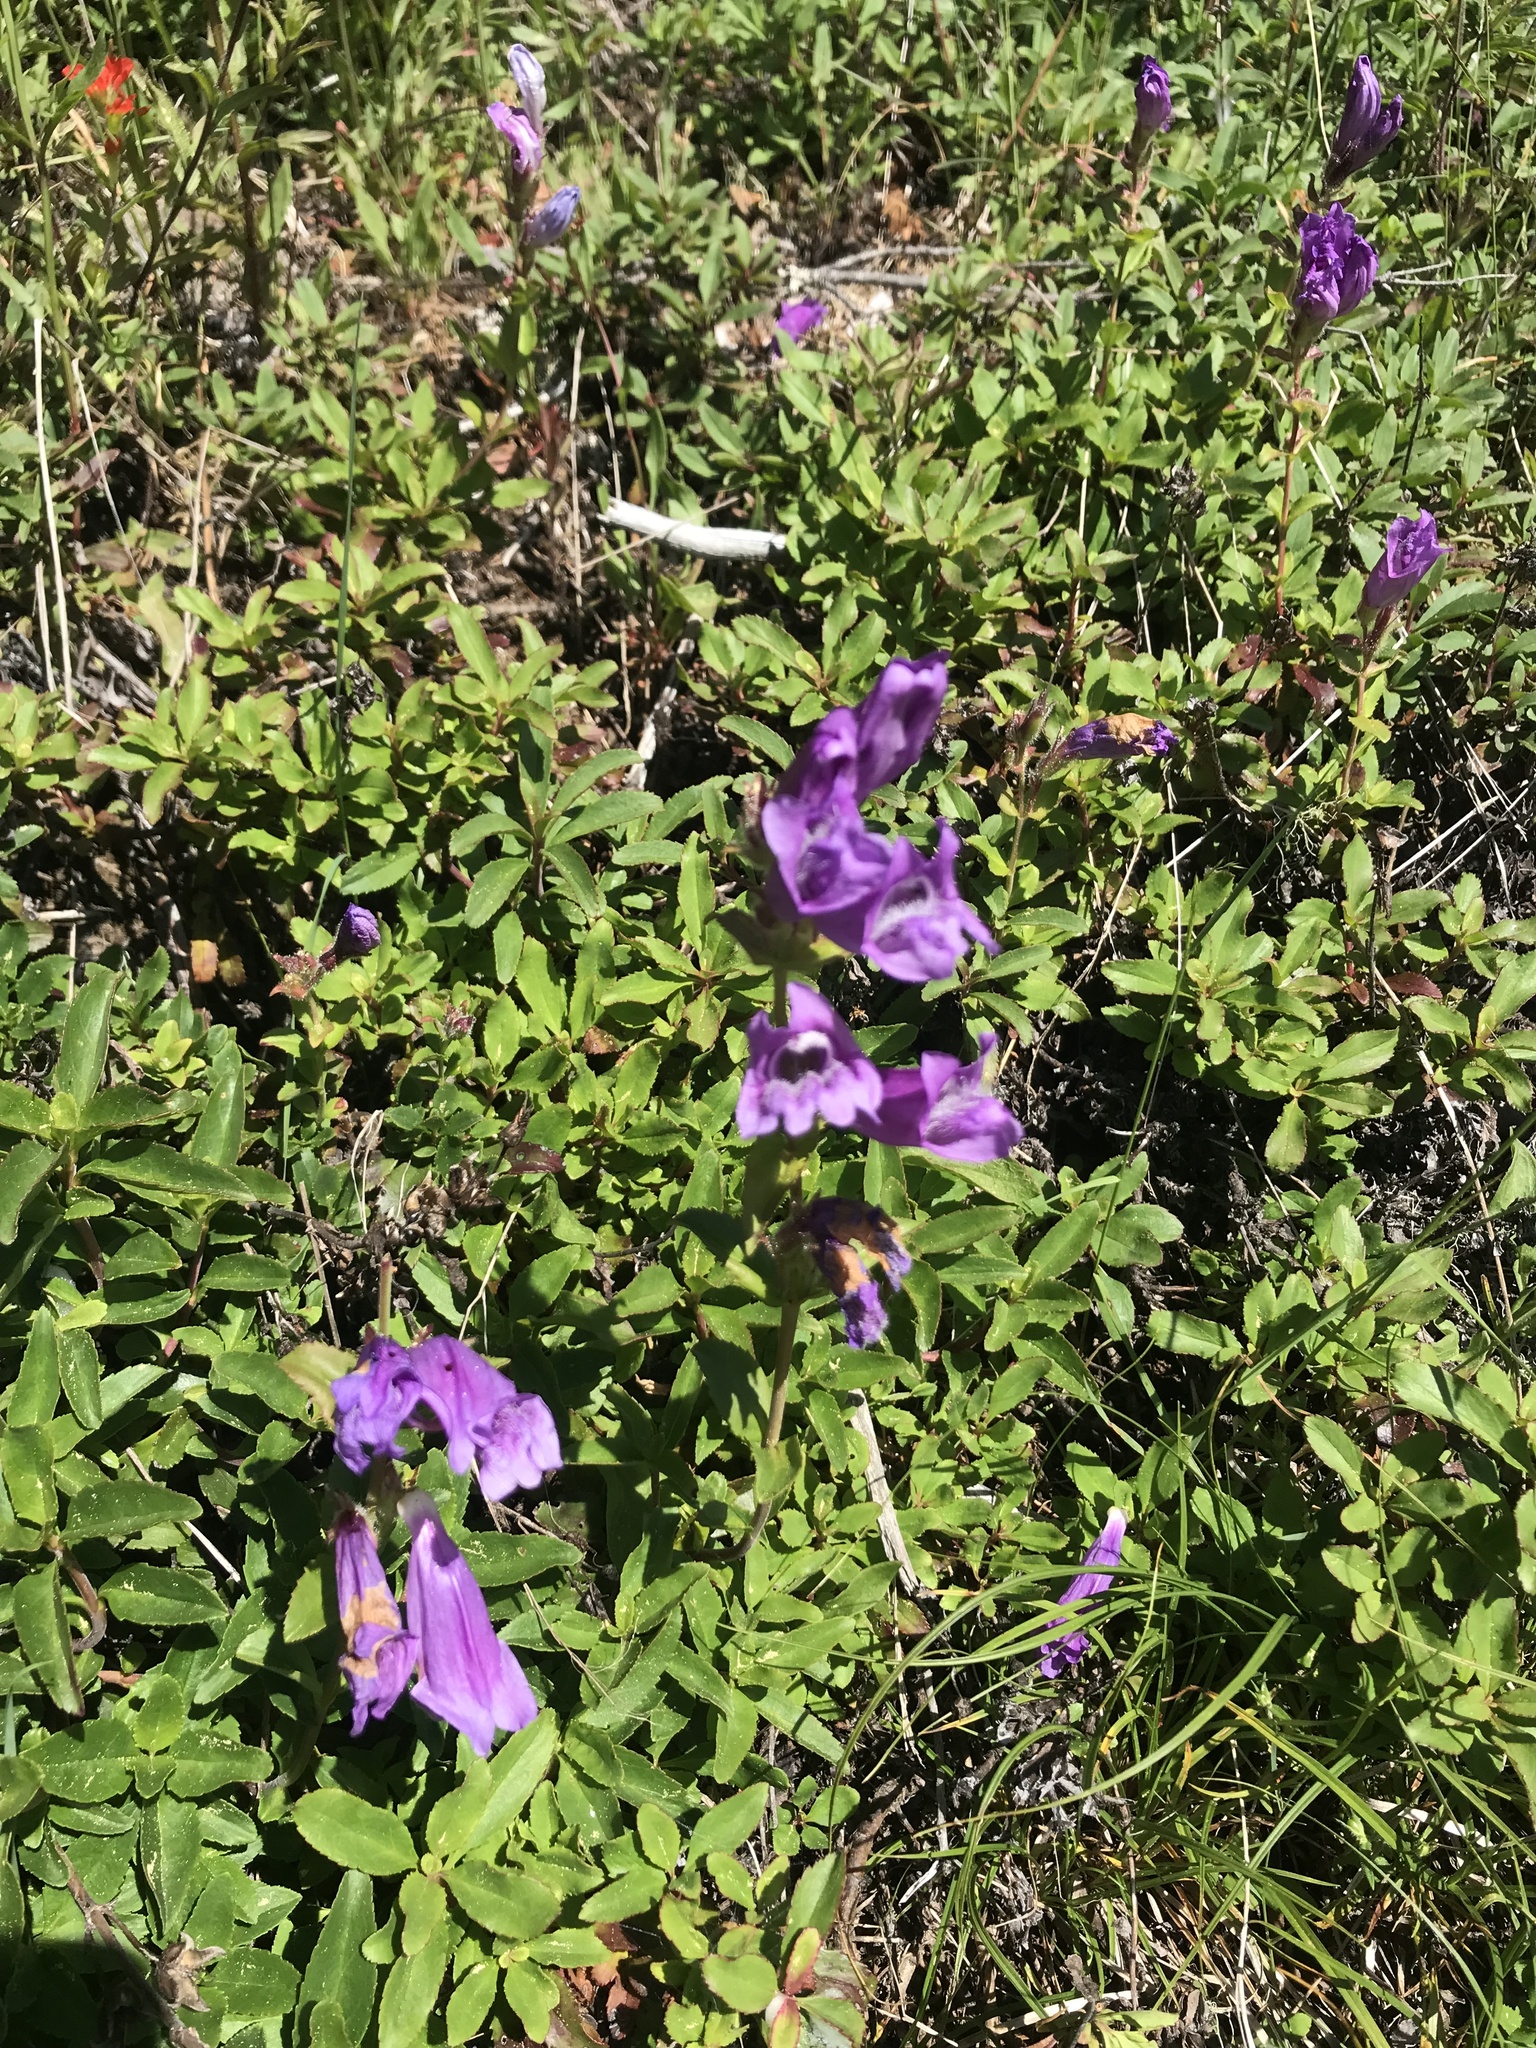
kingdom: Plantae
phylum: Tracheophyta
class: Magnoliopsida
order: Lamiales
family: Plantaginaceae
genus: Penstemon
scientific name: Penstemon cardwellii
